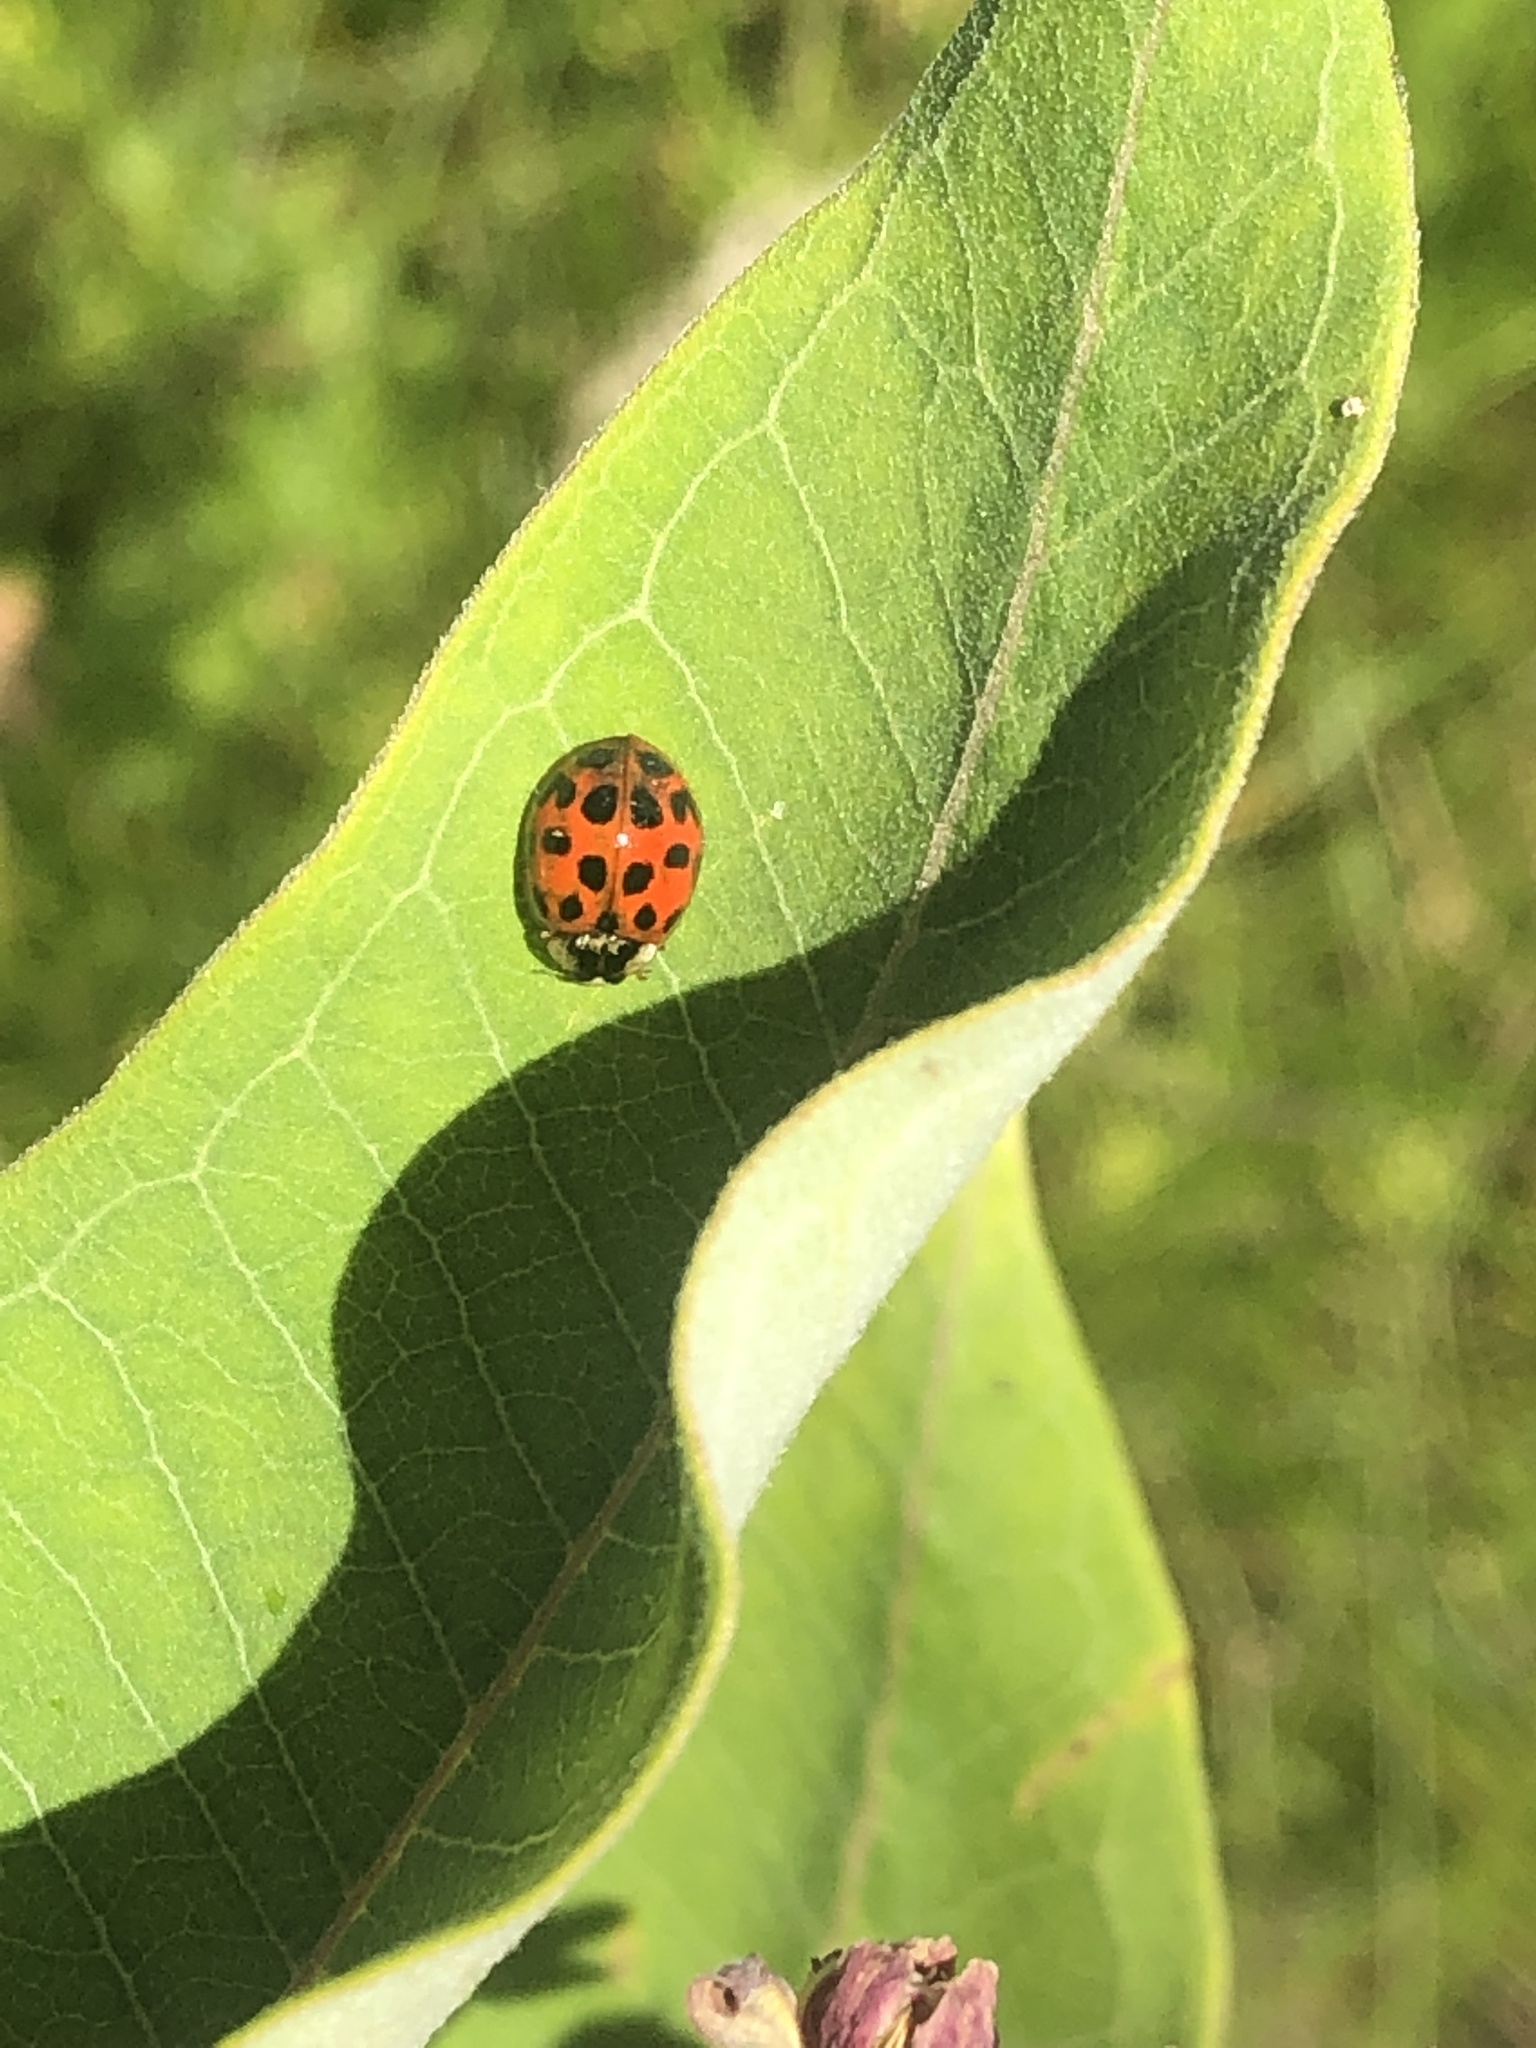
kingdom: Animalia
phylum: Arthropoda
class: Insecta
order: Coleoptera
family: Coccinellidae
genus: Harmonia
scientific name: Harmonia axyridis
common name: Harlequin ladybird
